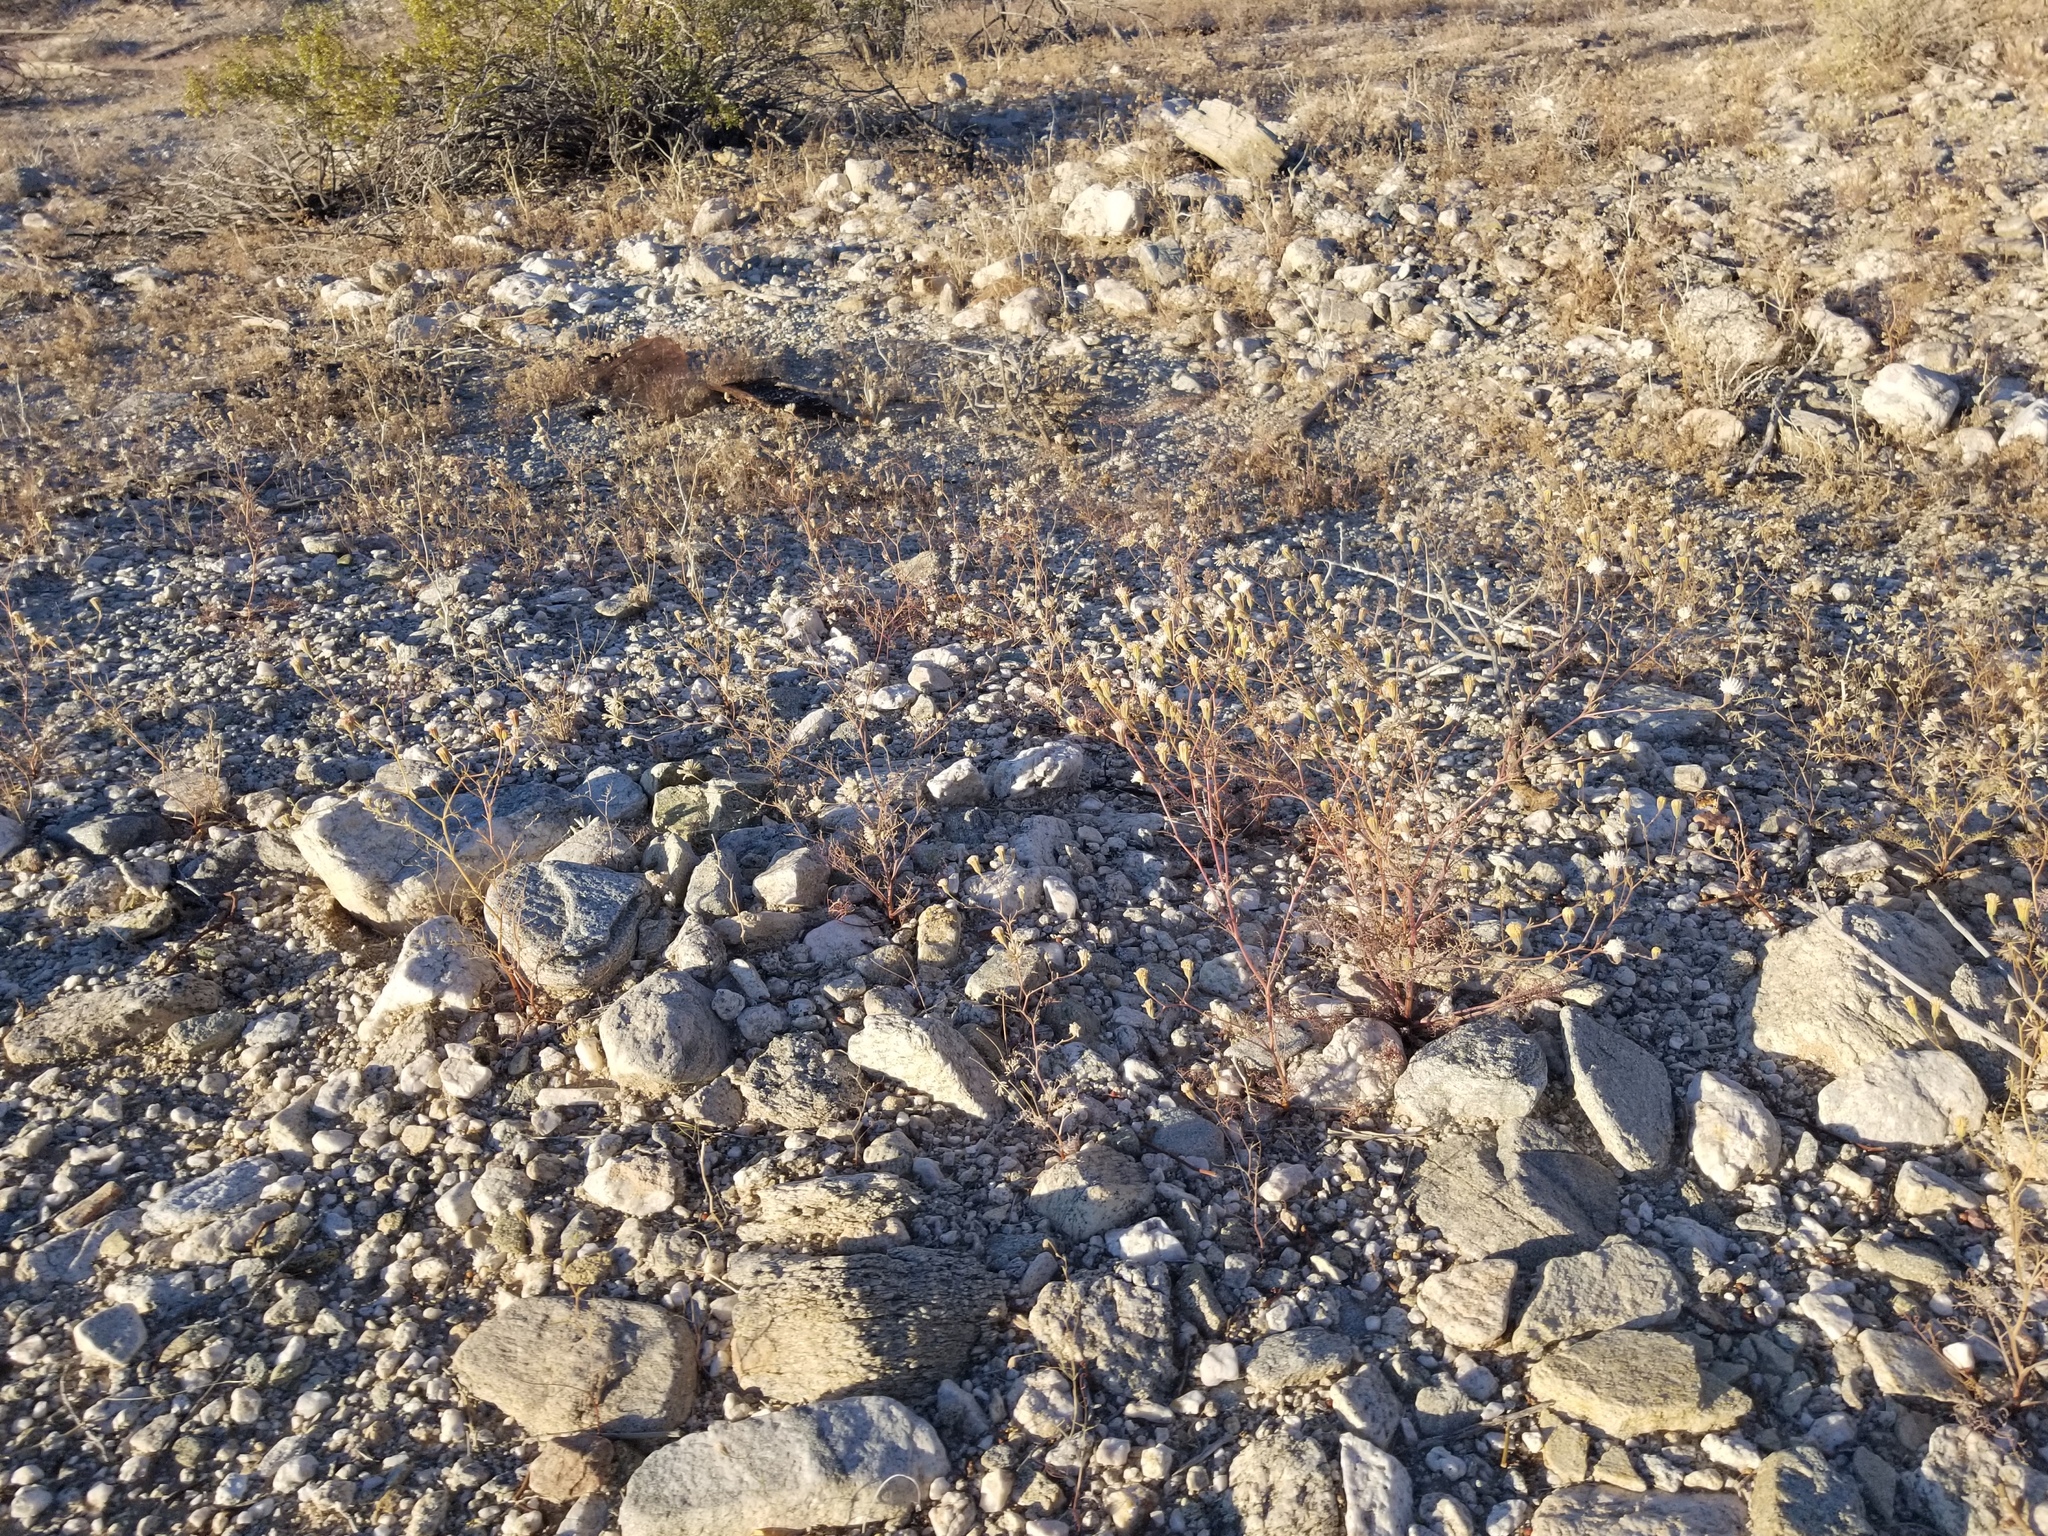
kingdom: Plantae
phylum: Tracheophyta
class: Magnoliopsida
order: Asterales
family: Asteraceae
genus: Chaenactis
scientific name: Chaenactis carphoclinia
